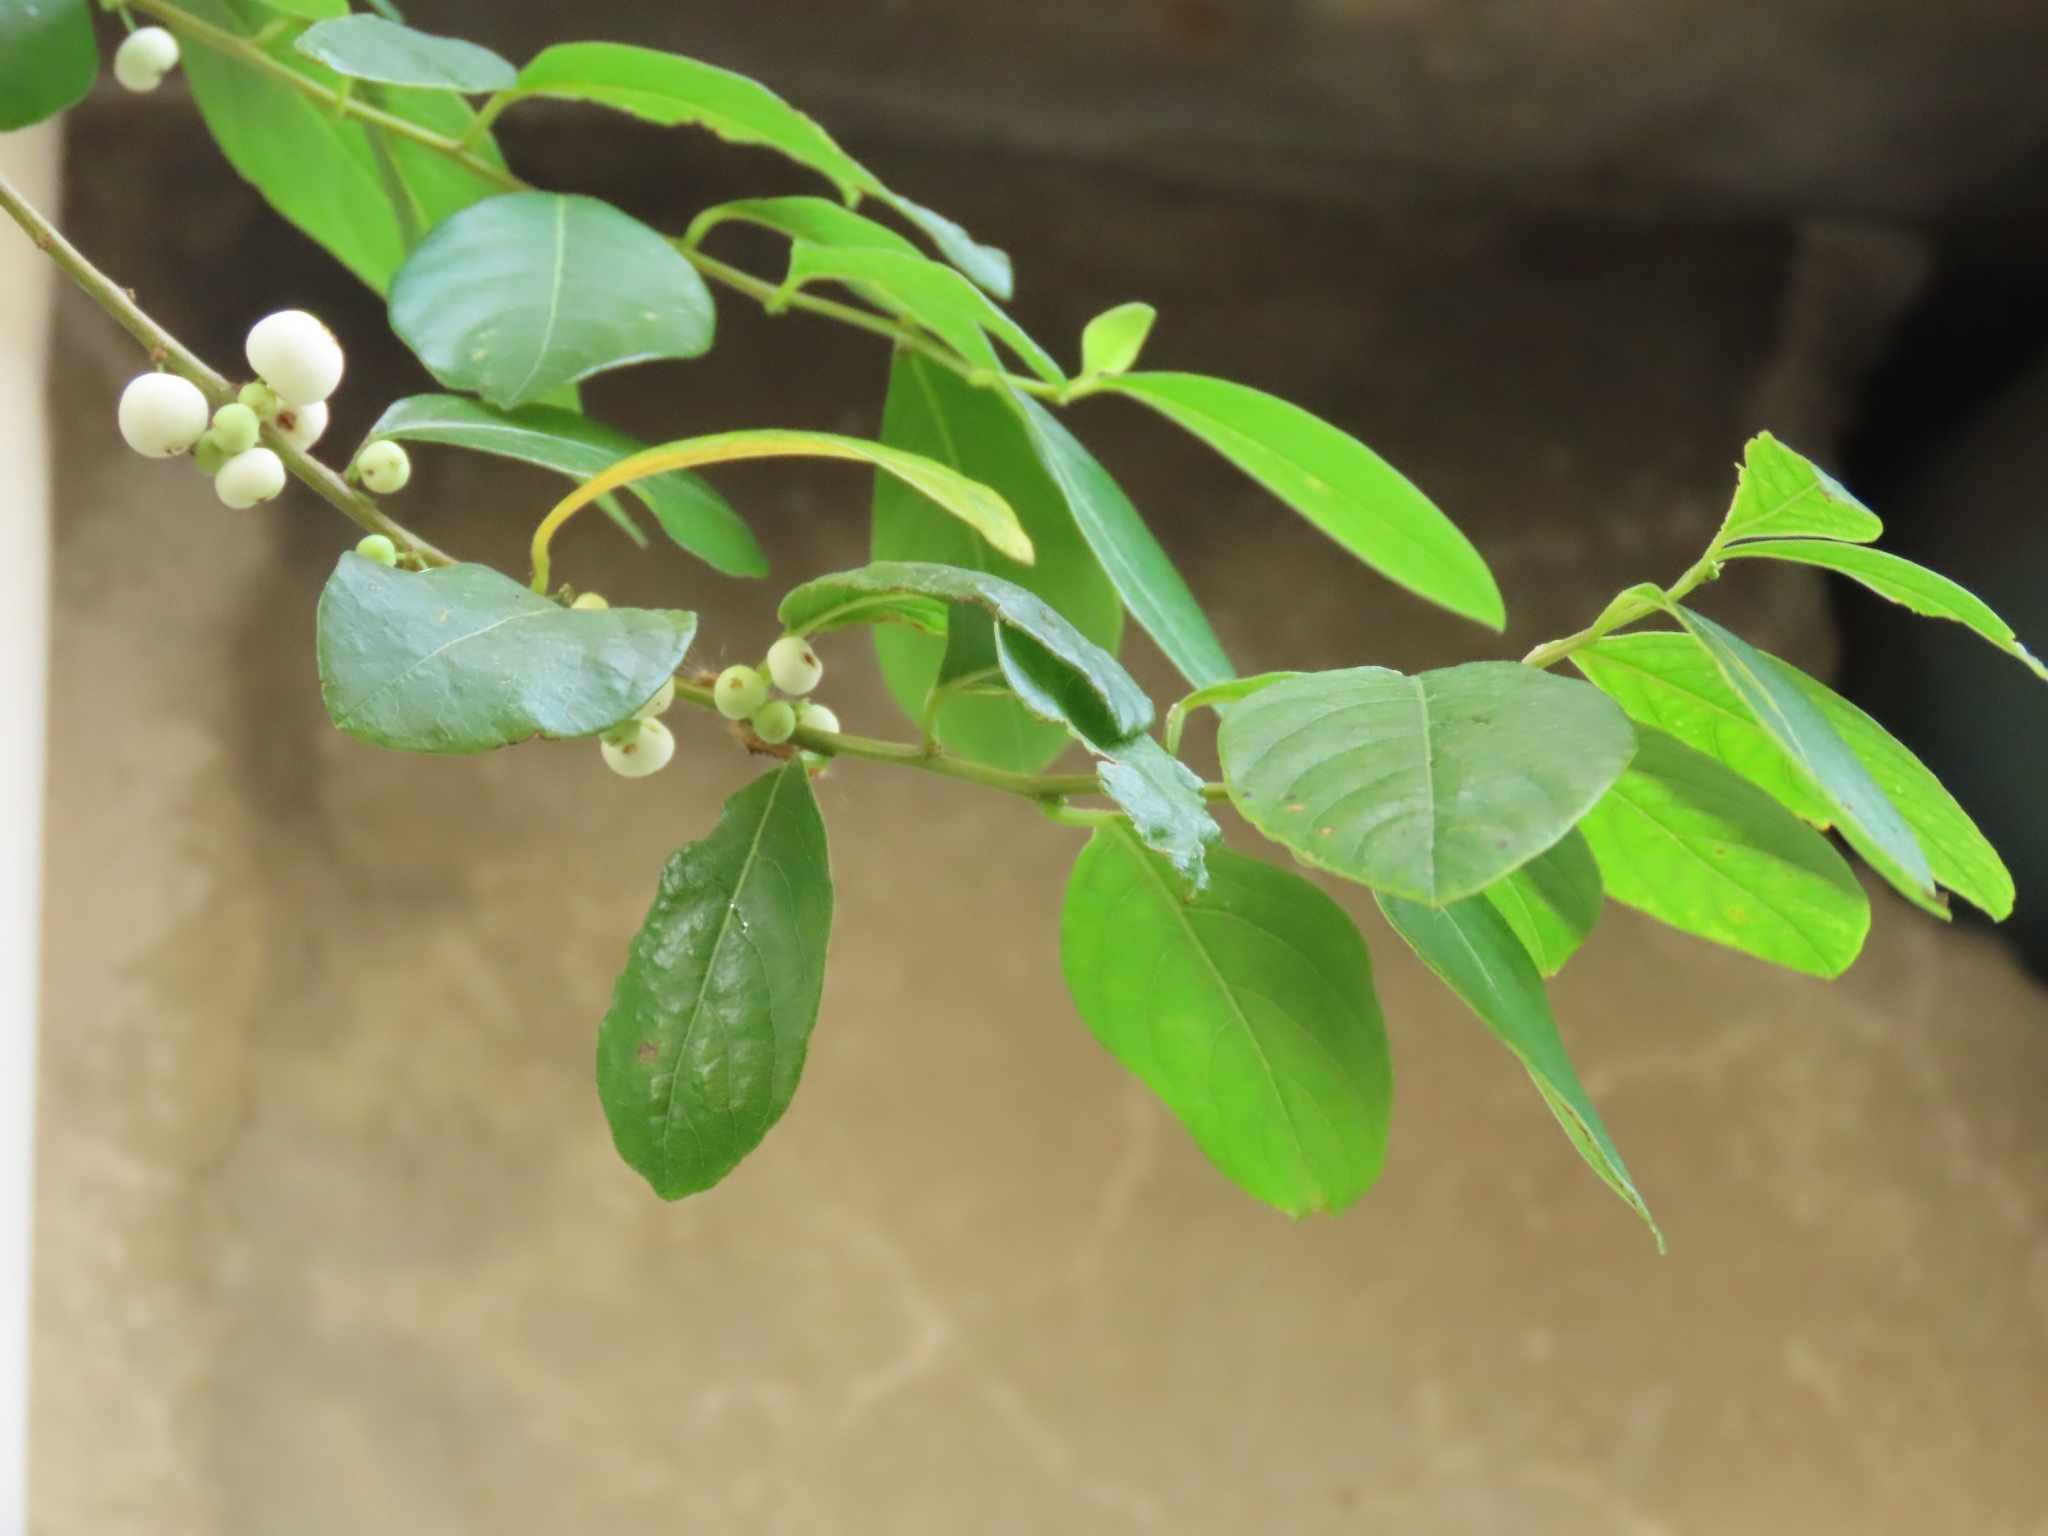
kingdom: Plantae
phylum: Tracheophyta
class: Magnoliopsida
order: Malpighiales
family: Phyllanthaceae
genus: Flueggea
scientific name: Flueggea virosa
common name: Common bushweed
